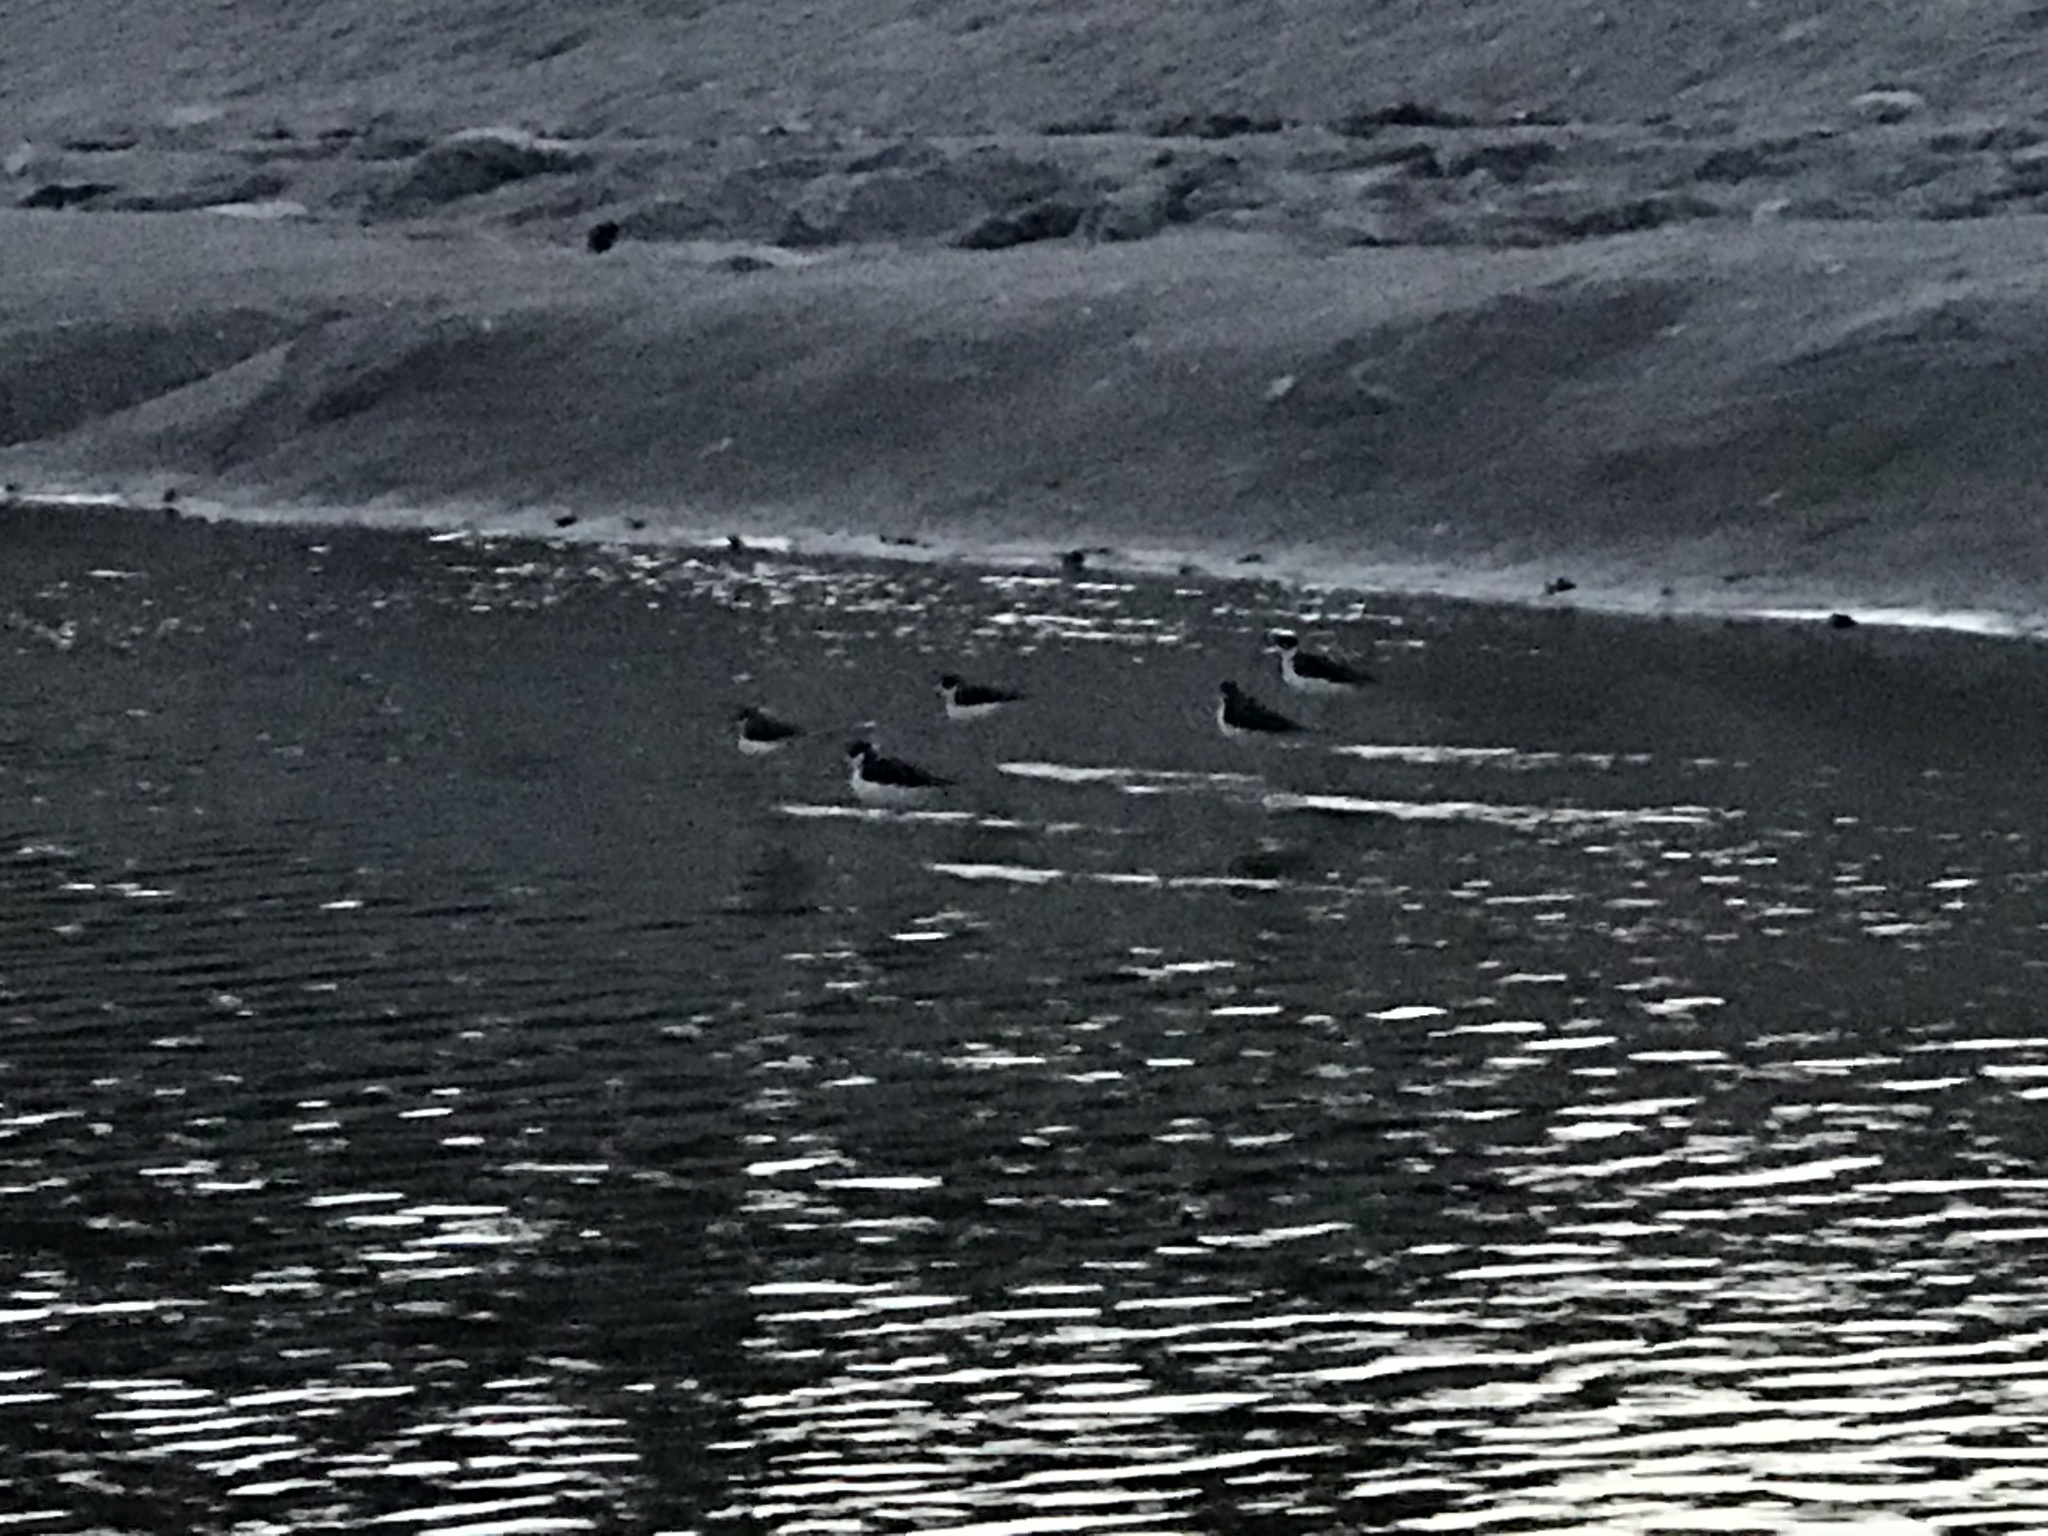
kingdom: Animalia
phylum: Chordata
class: Aves
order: Charadriiformes
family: Recurvirostridae
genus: Himantopus
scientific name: Himantopus mexicanus
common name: Black-necked stilt
